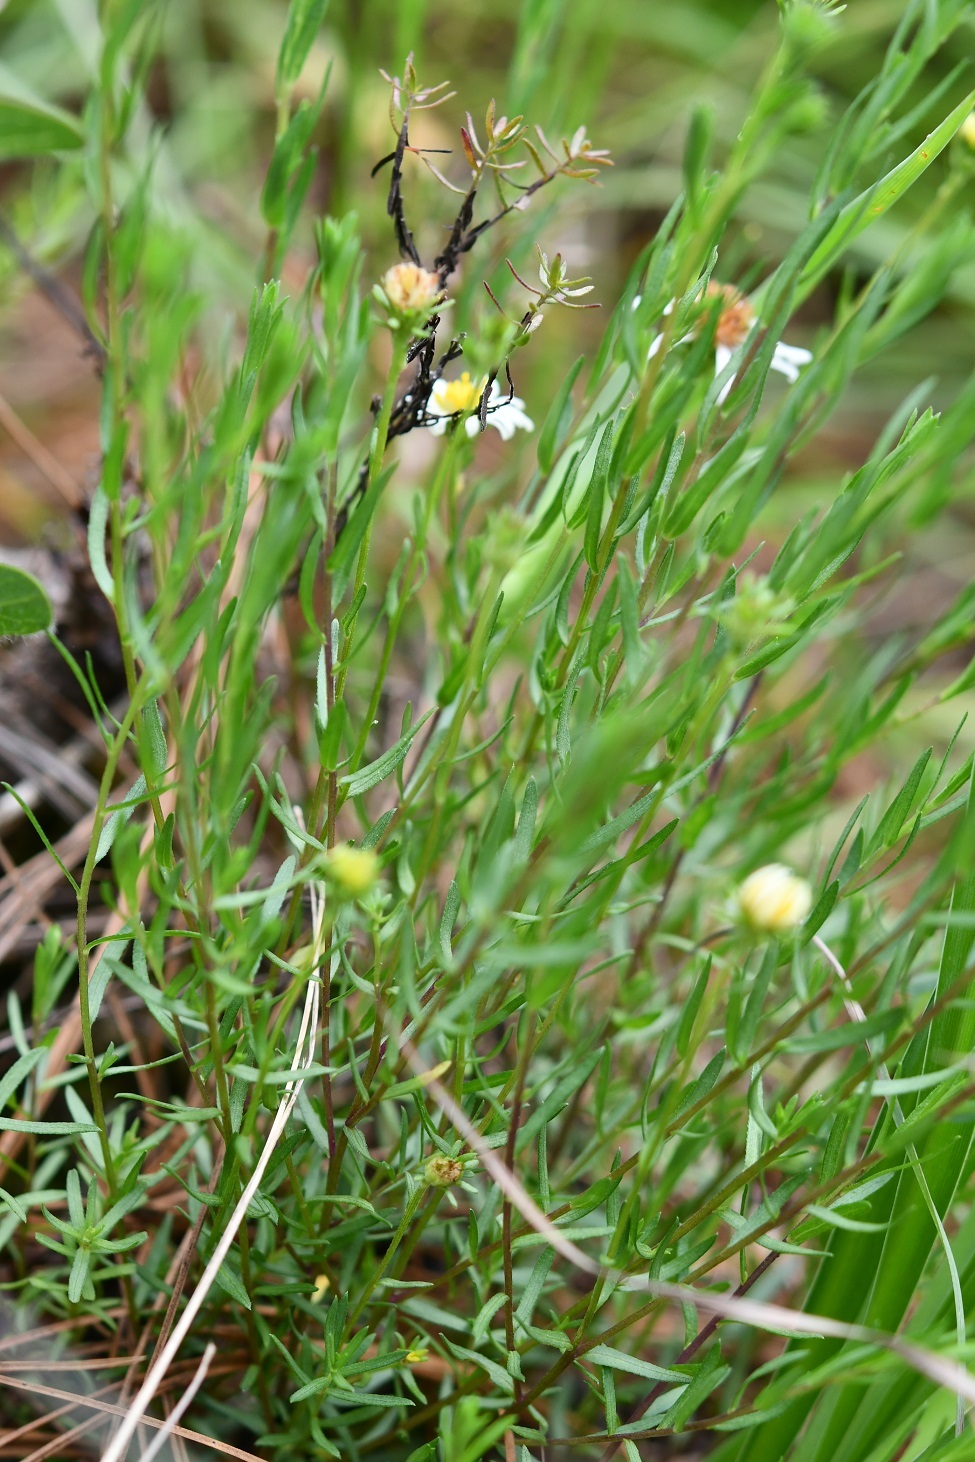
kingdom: Plantae
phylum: Tracheophyta
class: Magnoliopsida
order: Asterales
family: Asteraceae
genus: Symphyotrichum
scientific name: Symphyotrichum bullatum
